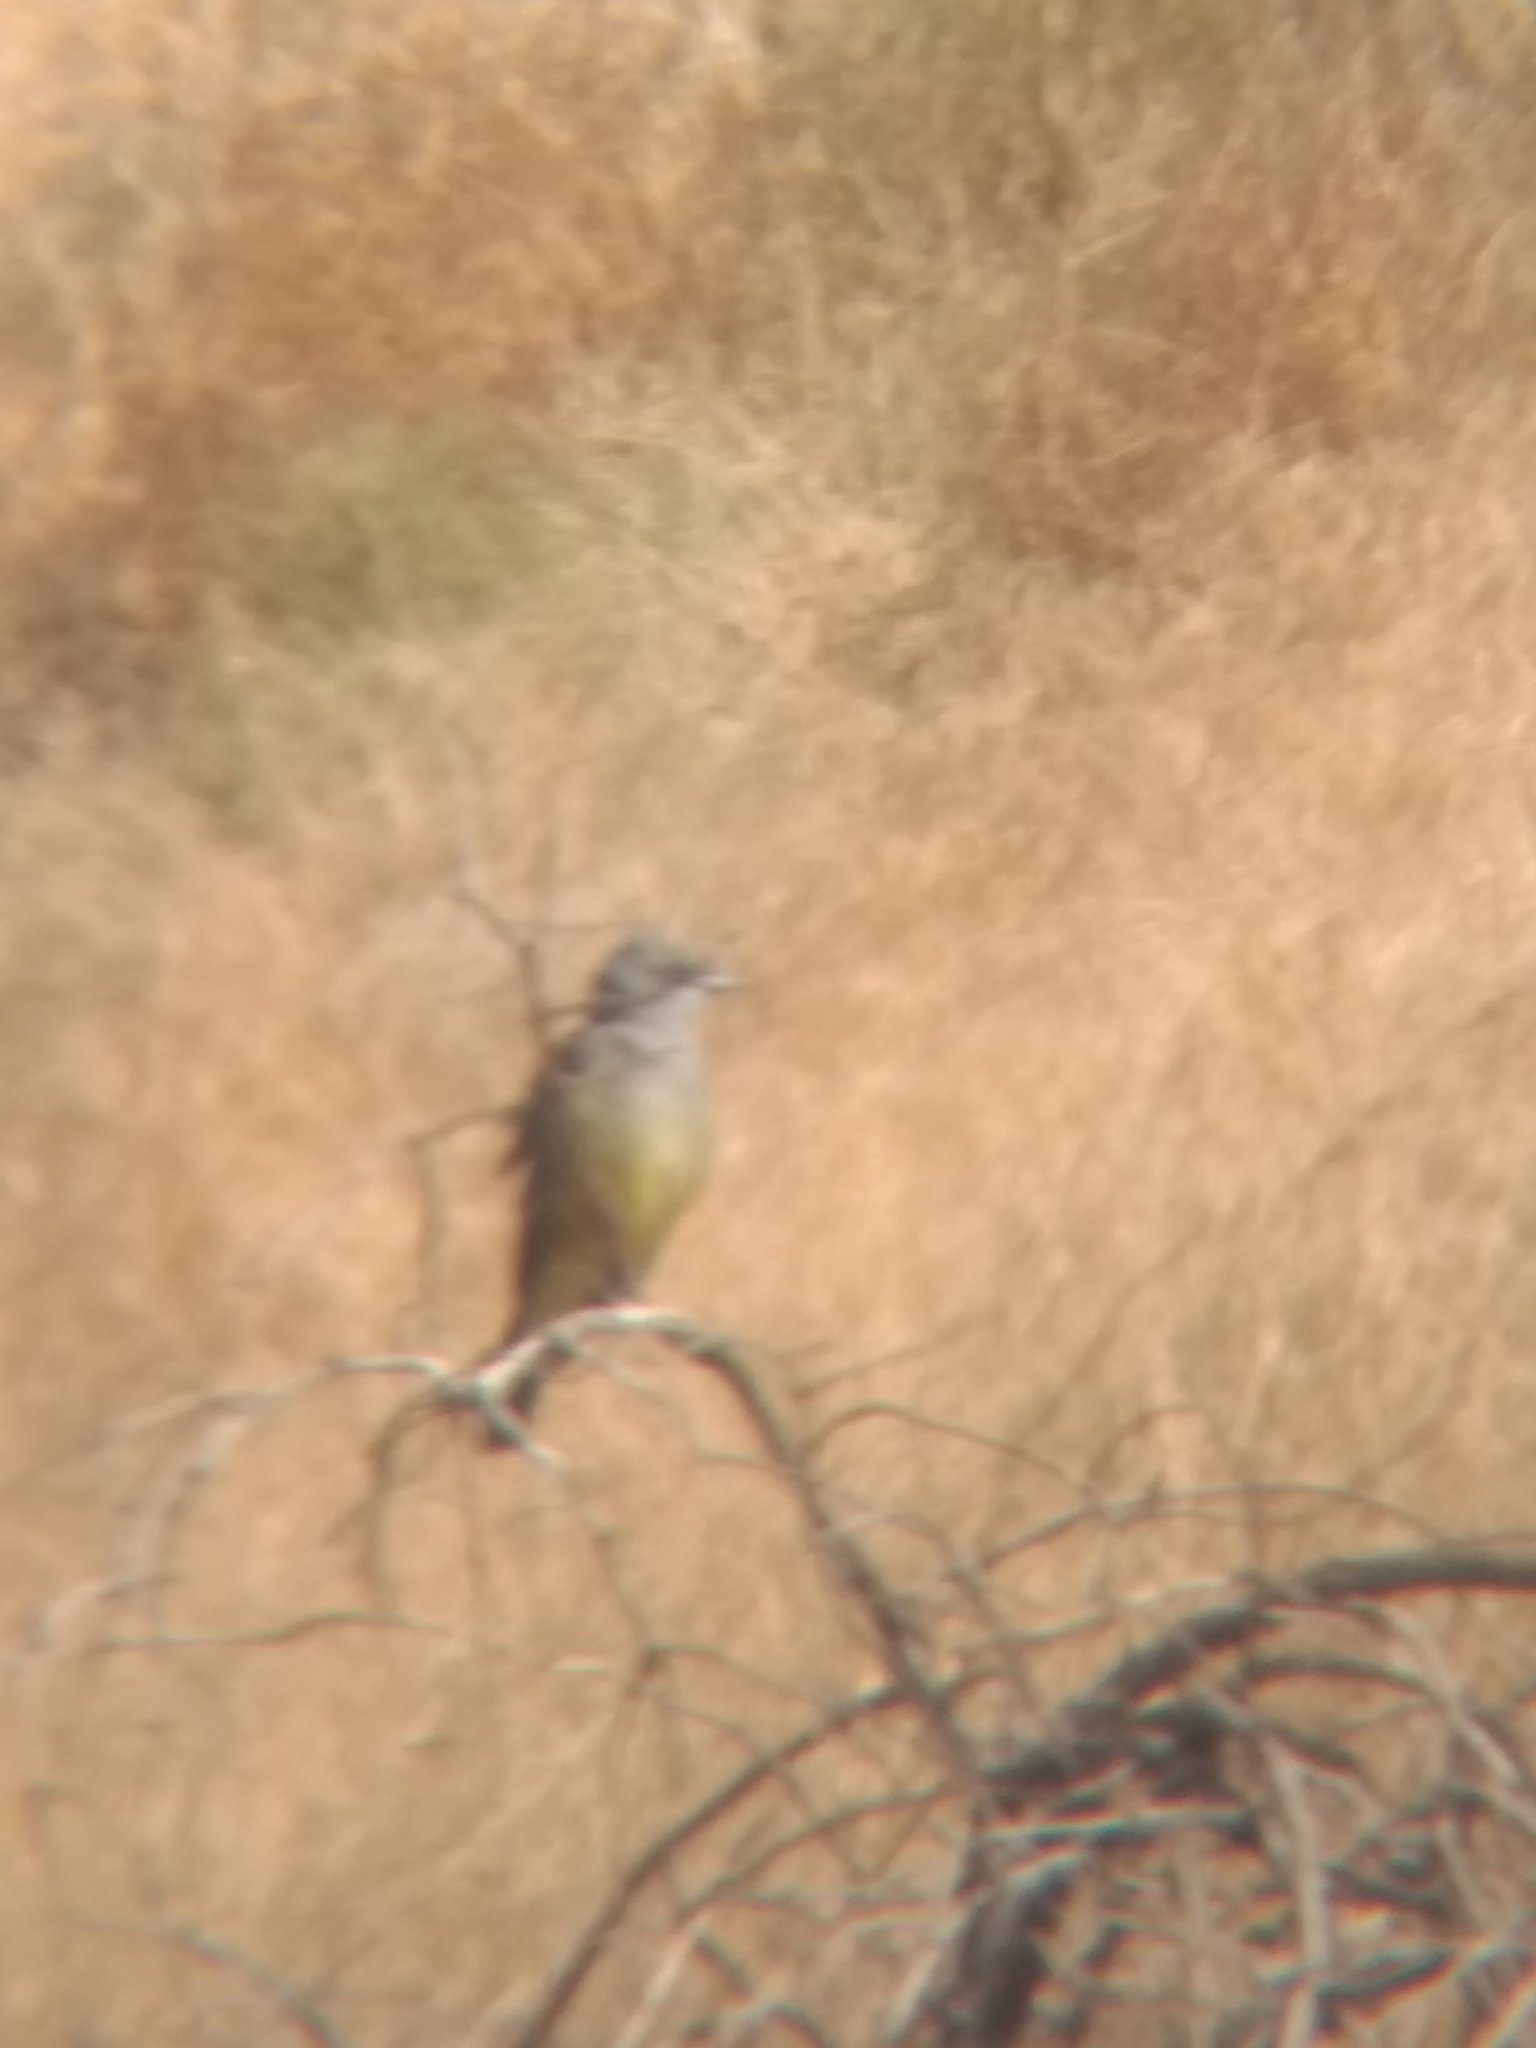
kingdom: Animalia
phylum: Chordata
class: Aves
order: Passeriformes
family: Tyrannidae
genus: Tyrannus
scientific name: Tyrannus vociferans
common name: Cassin's kingbird
